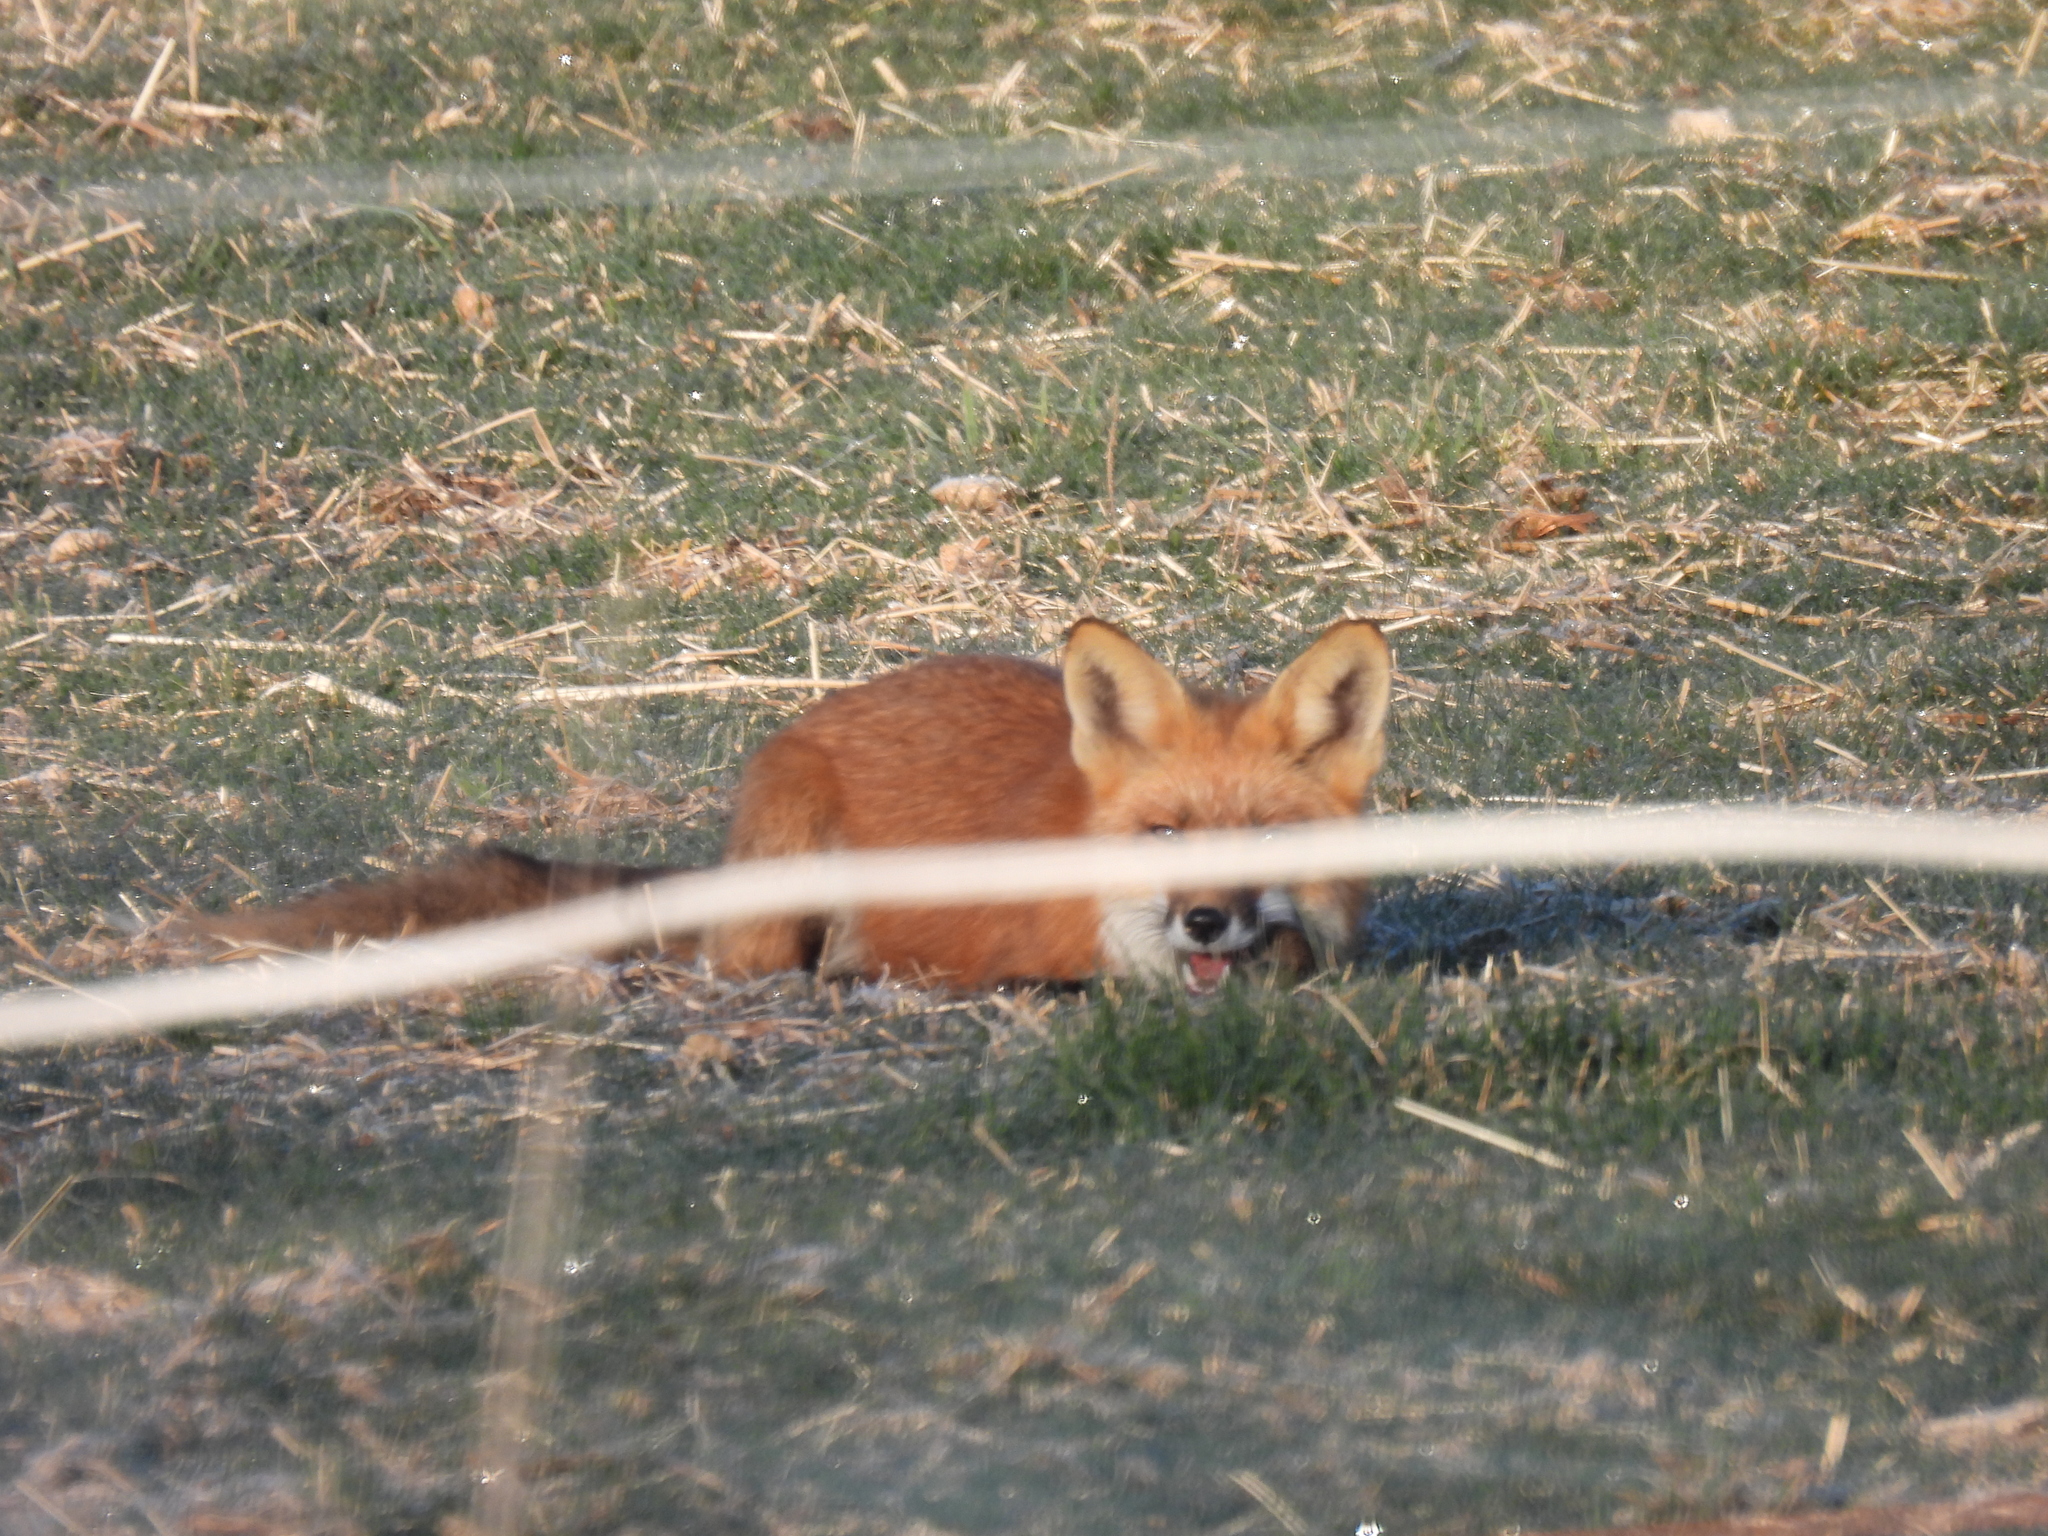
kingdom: Animalia
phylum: Chordata
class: Mammalia
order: Carnivora
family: Canidae
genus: Vulpes
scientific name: Vulpes vulpes
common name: Red fox
